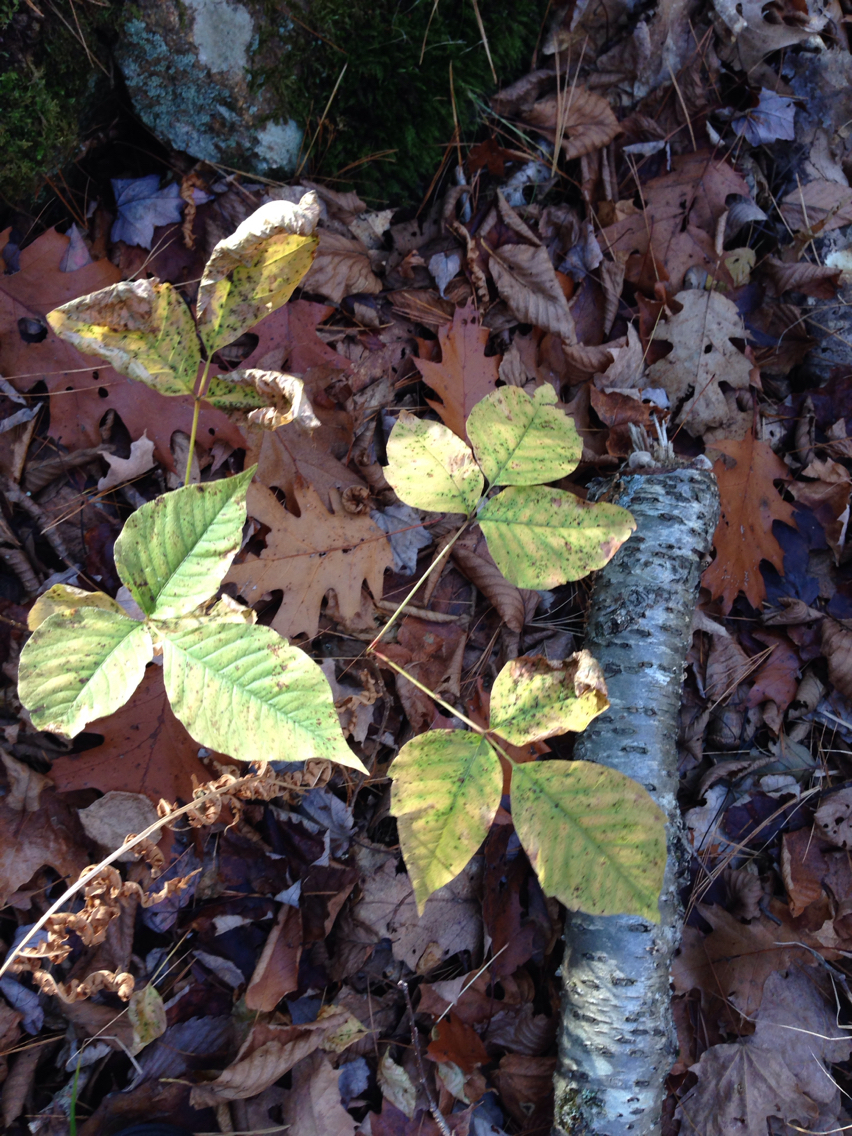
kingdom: Plantae
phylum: Tracheophyta
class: Magnoliopsida
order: Sapindales
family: Anacardiaceae
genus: Toxicodendron
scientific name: Toxicodendron radicans
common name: Poison ivy
